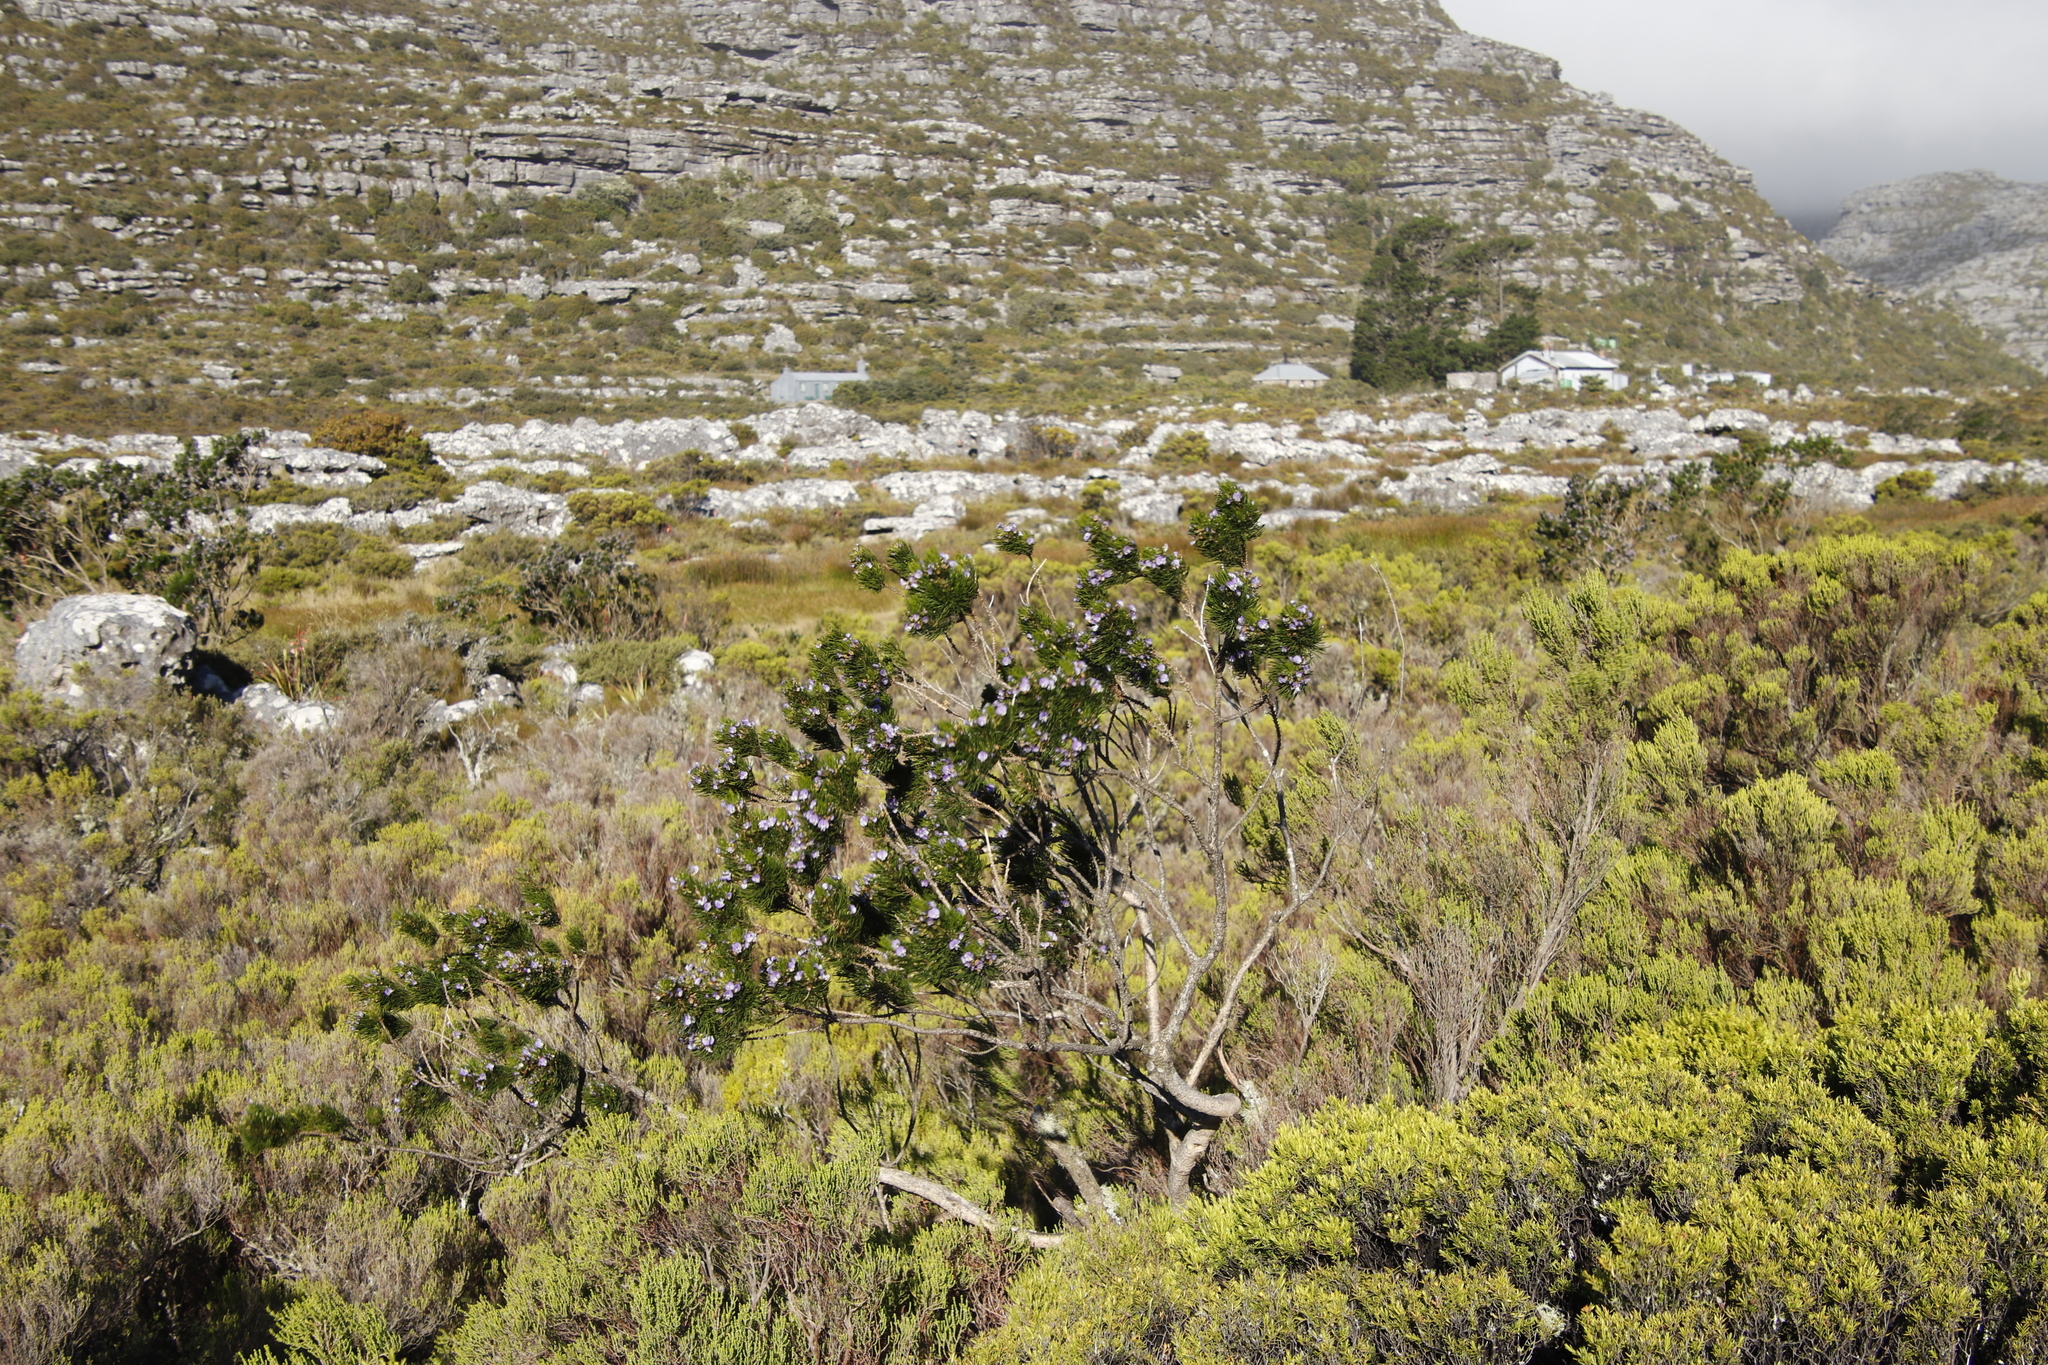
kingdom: Plantae
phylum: Tracheophyta
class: Magnoliopsida
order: Fabales
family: Fabaceae
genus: Psoralea
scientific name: Psoralea pinnata
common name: African scurfpea
